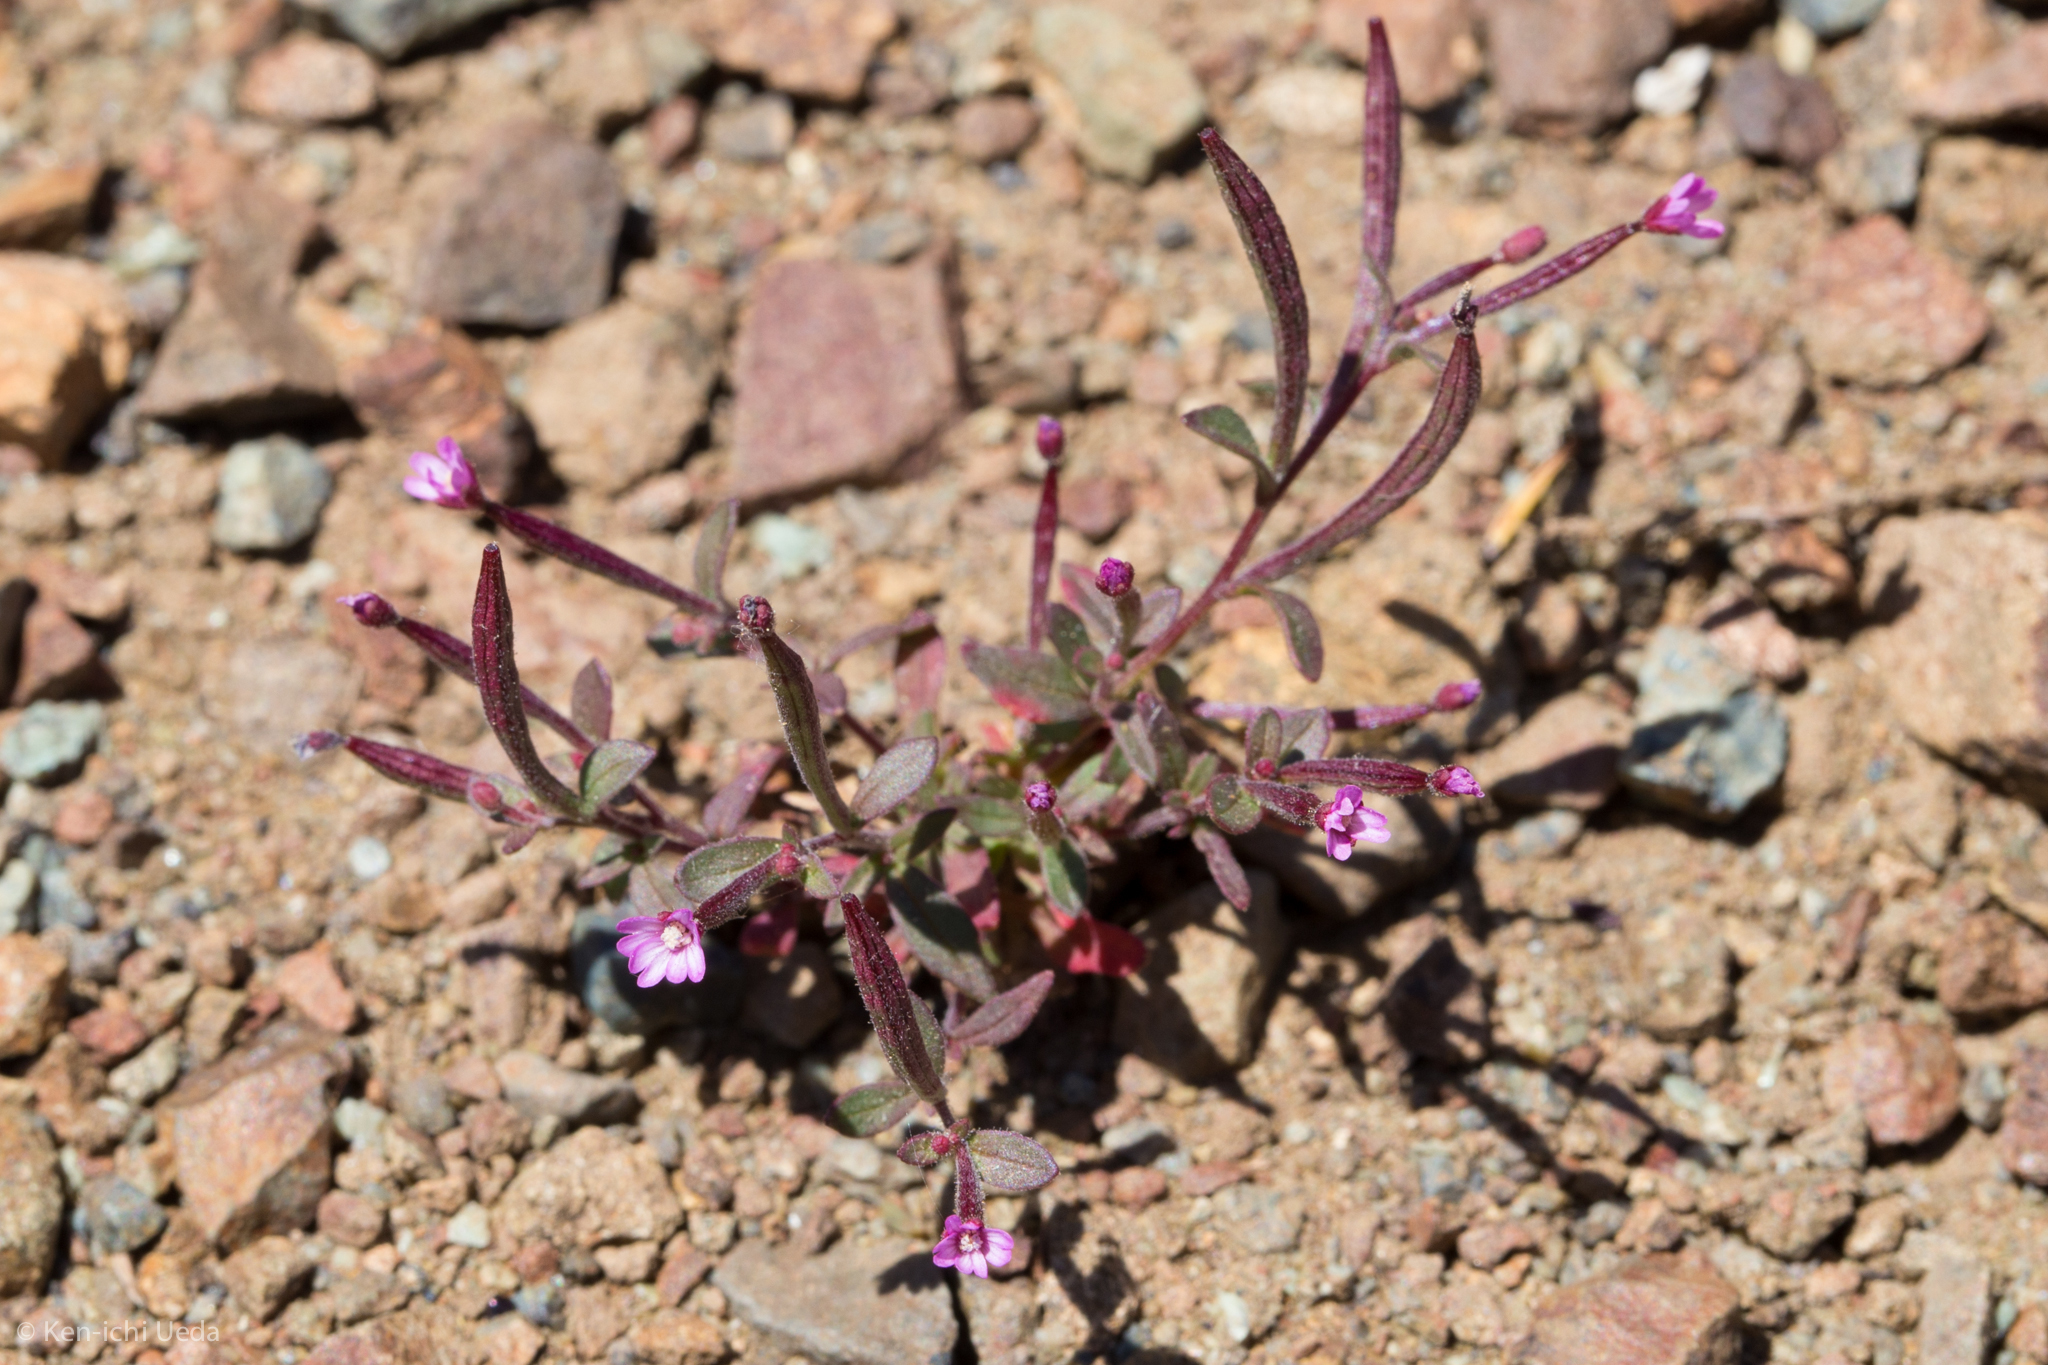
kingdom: Plantae
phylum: Tracheophyta
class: Magnoliopsida
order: Myrtales
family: Onagraceae
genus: Epilobium
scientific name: Epilobium minutum
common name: Chaparral willowherb
